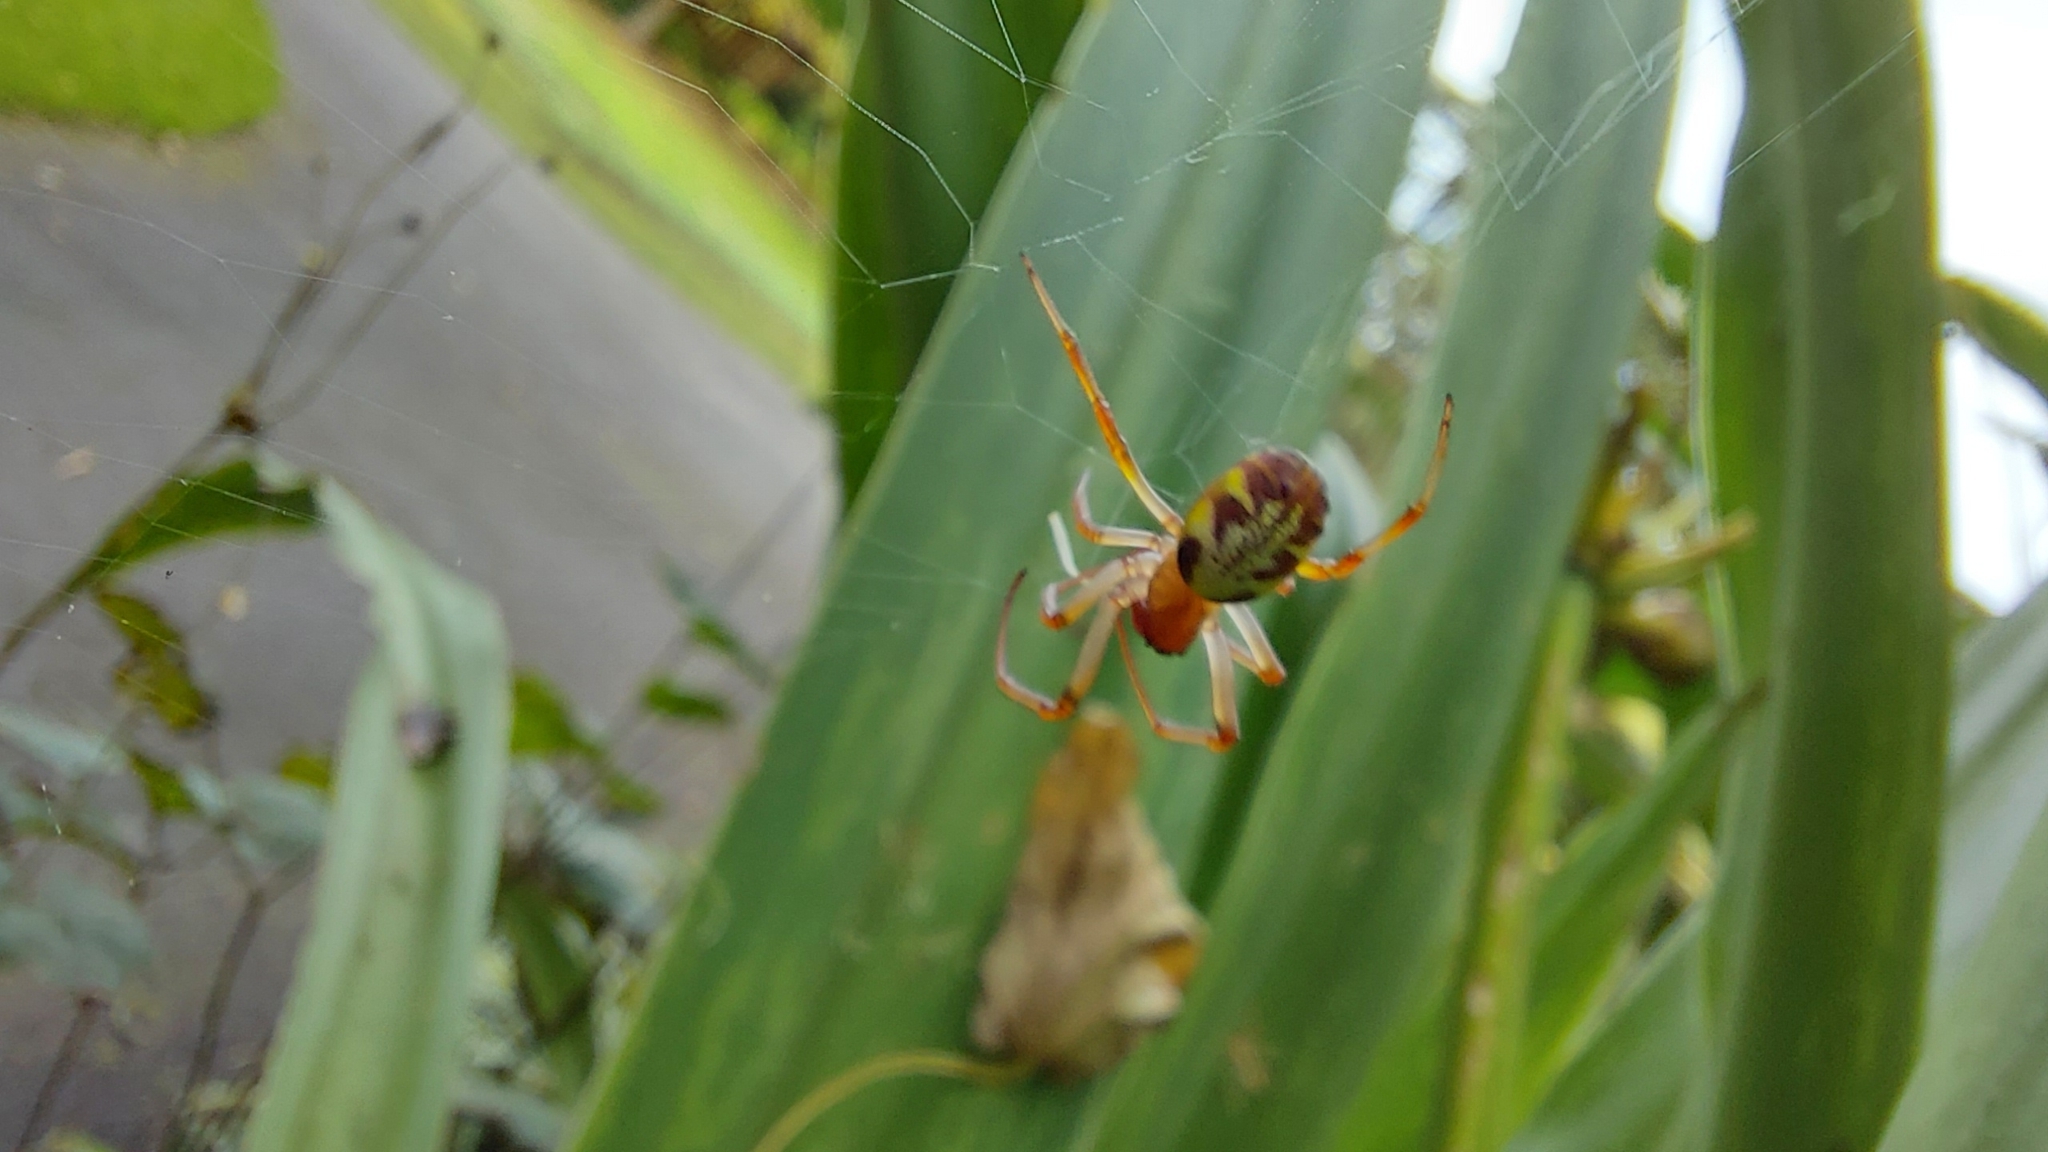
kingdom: Animalia
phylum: Arthropoda
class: Arachnida
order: Araneae
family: Araneidae
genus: Phonognatha
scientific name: Phonognatha graeffei
